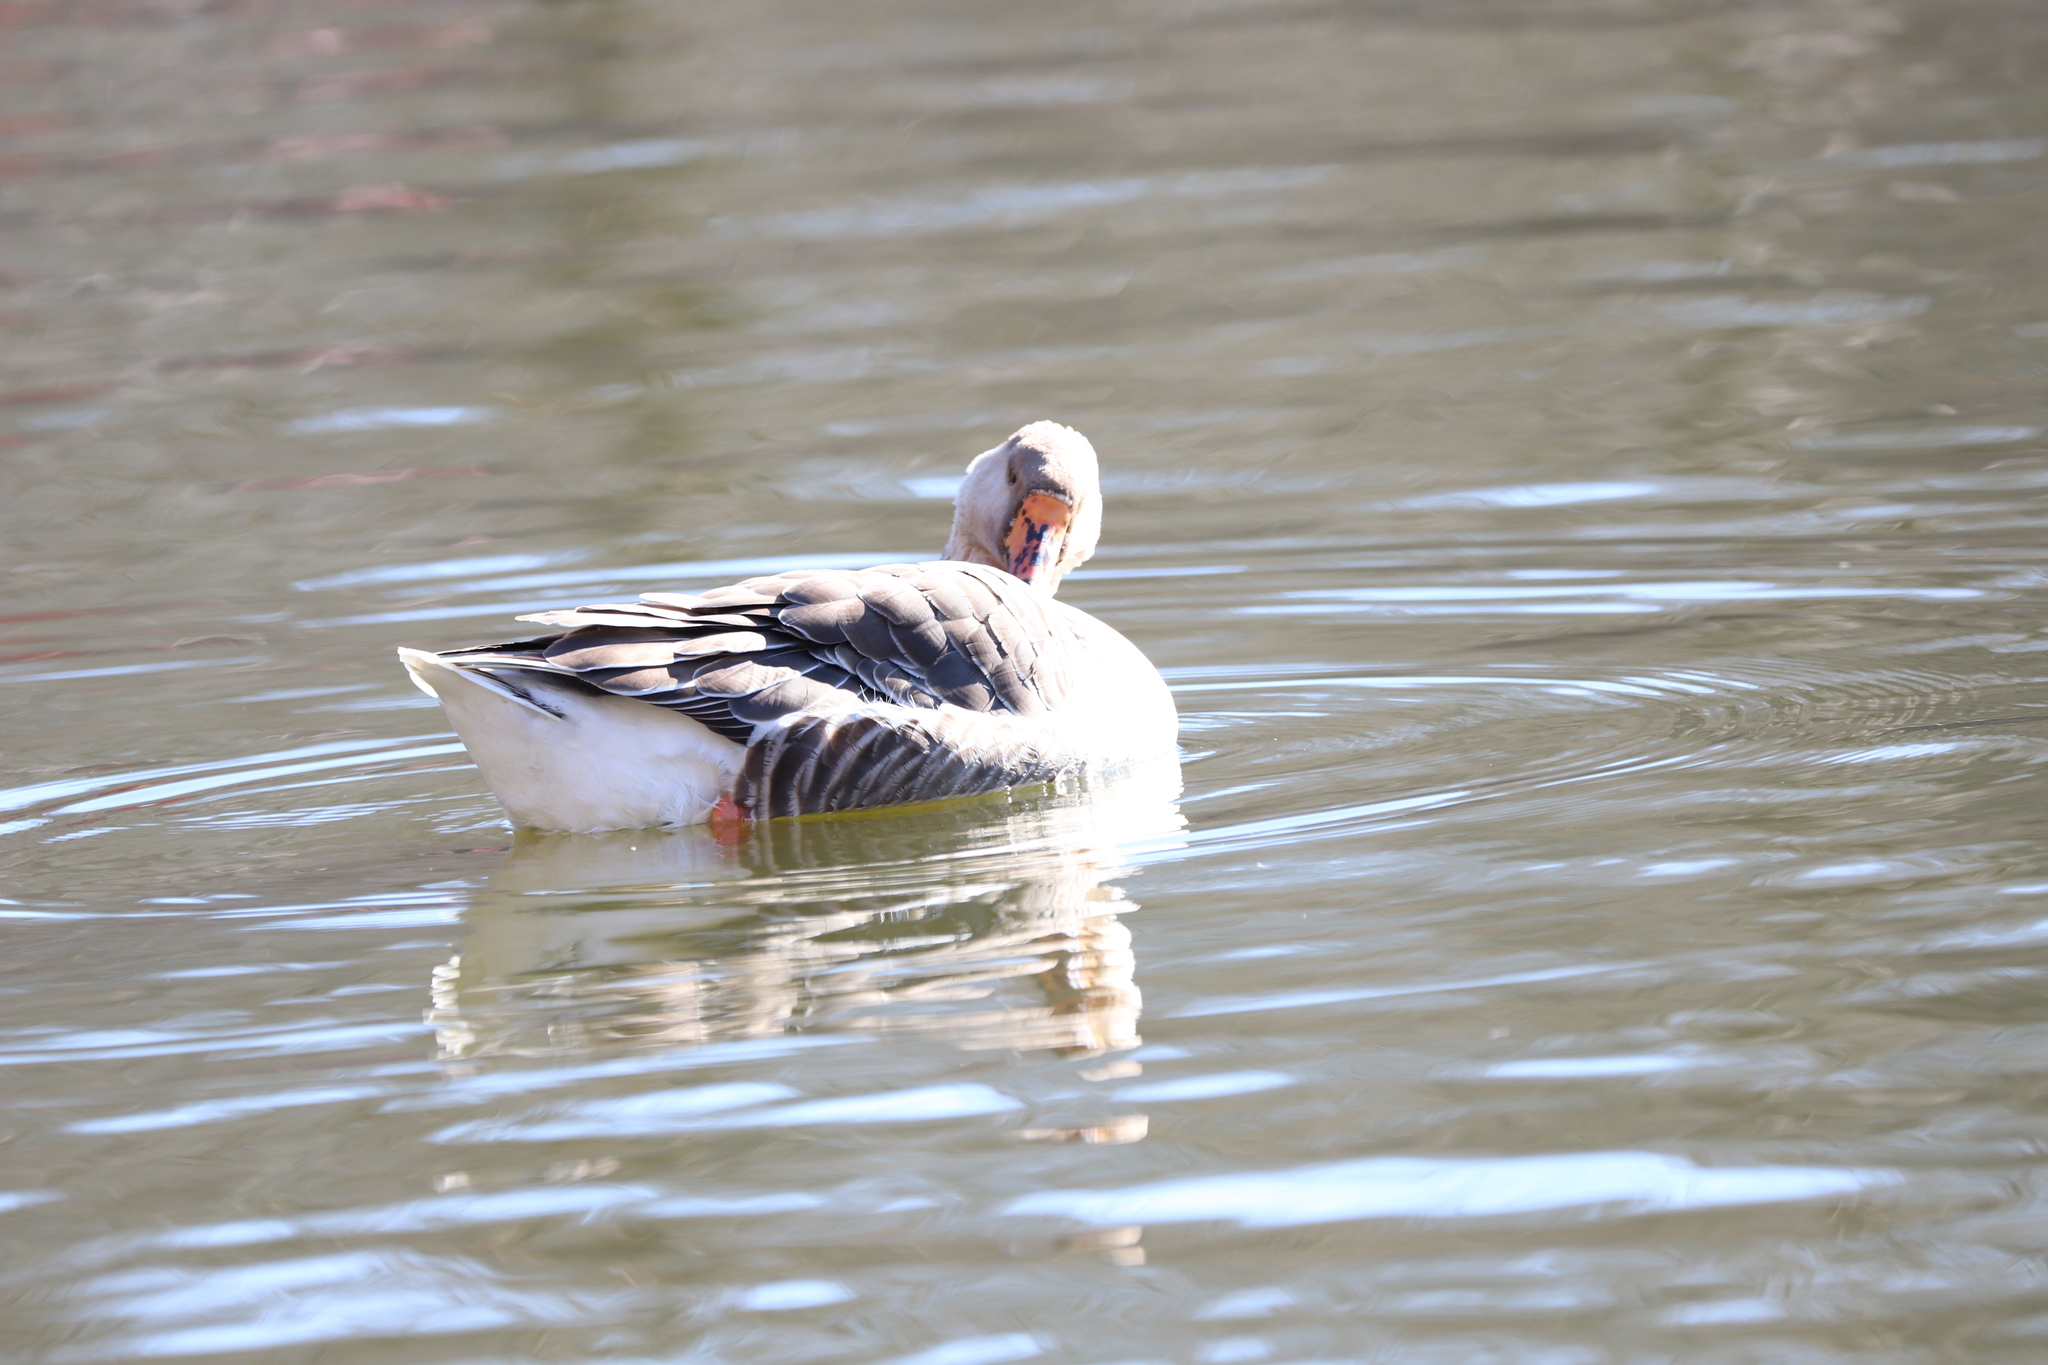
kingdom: Animalia
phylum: Chordata
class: Aves
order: Anseriformes
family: Anatidae
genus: Anser
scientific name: Anser
